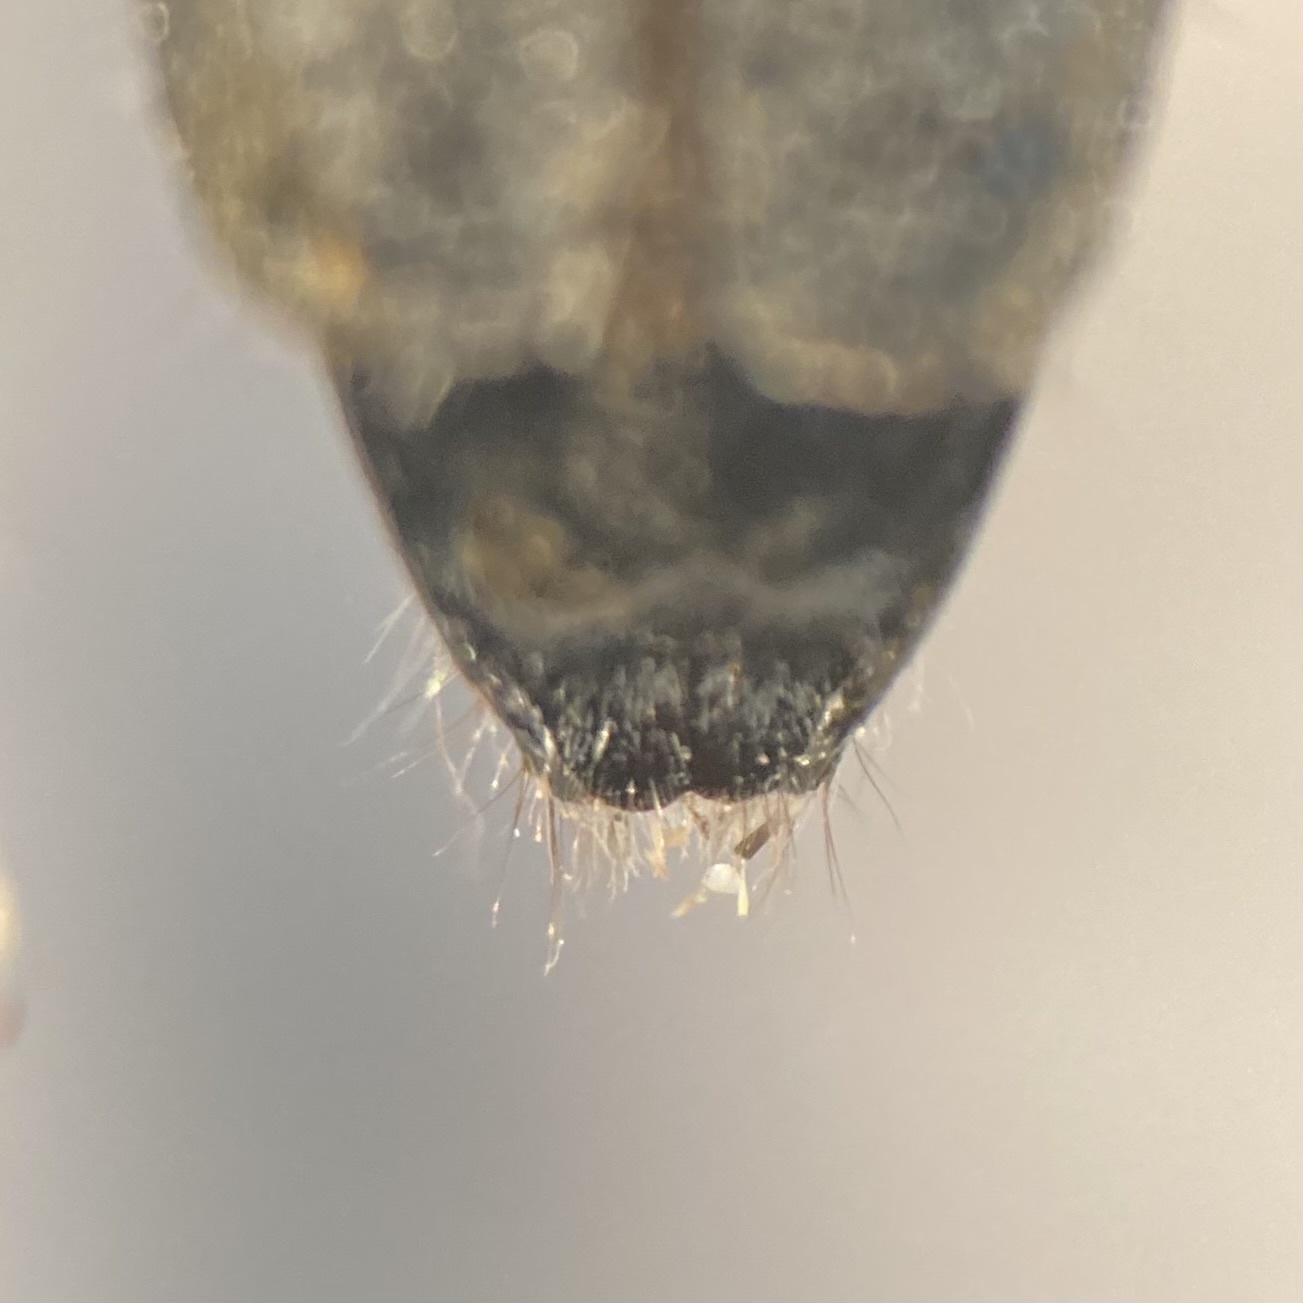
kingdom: Animalia
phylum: Arthropoda
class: Insecta
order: Coleoptera
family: Cerambycidae
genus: Saperda
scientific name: Saperda imitans
